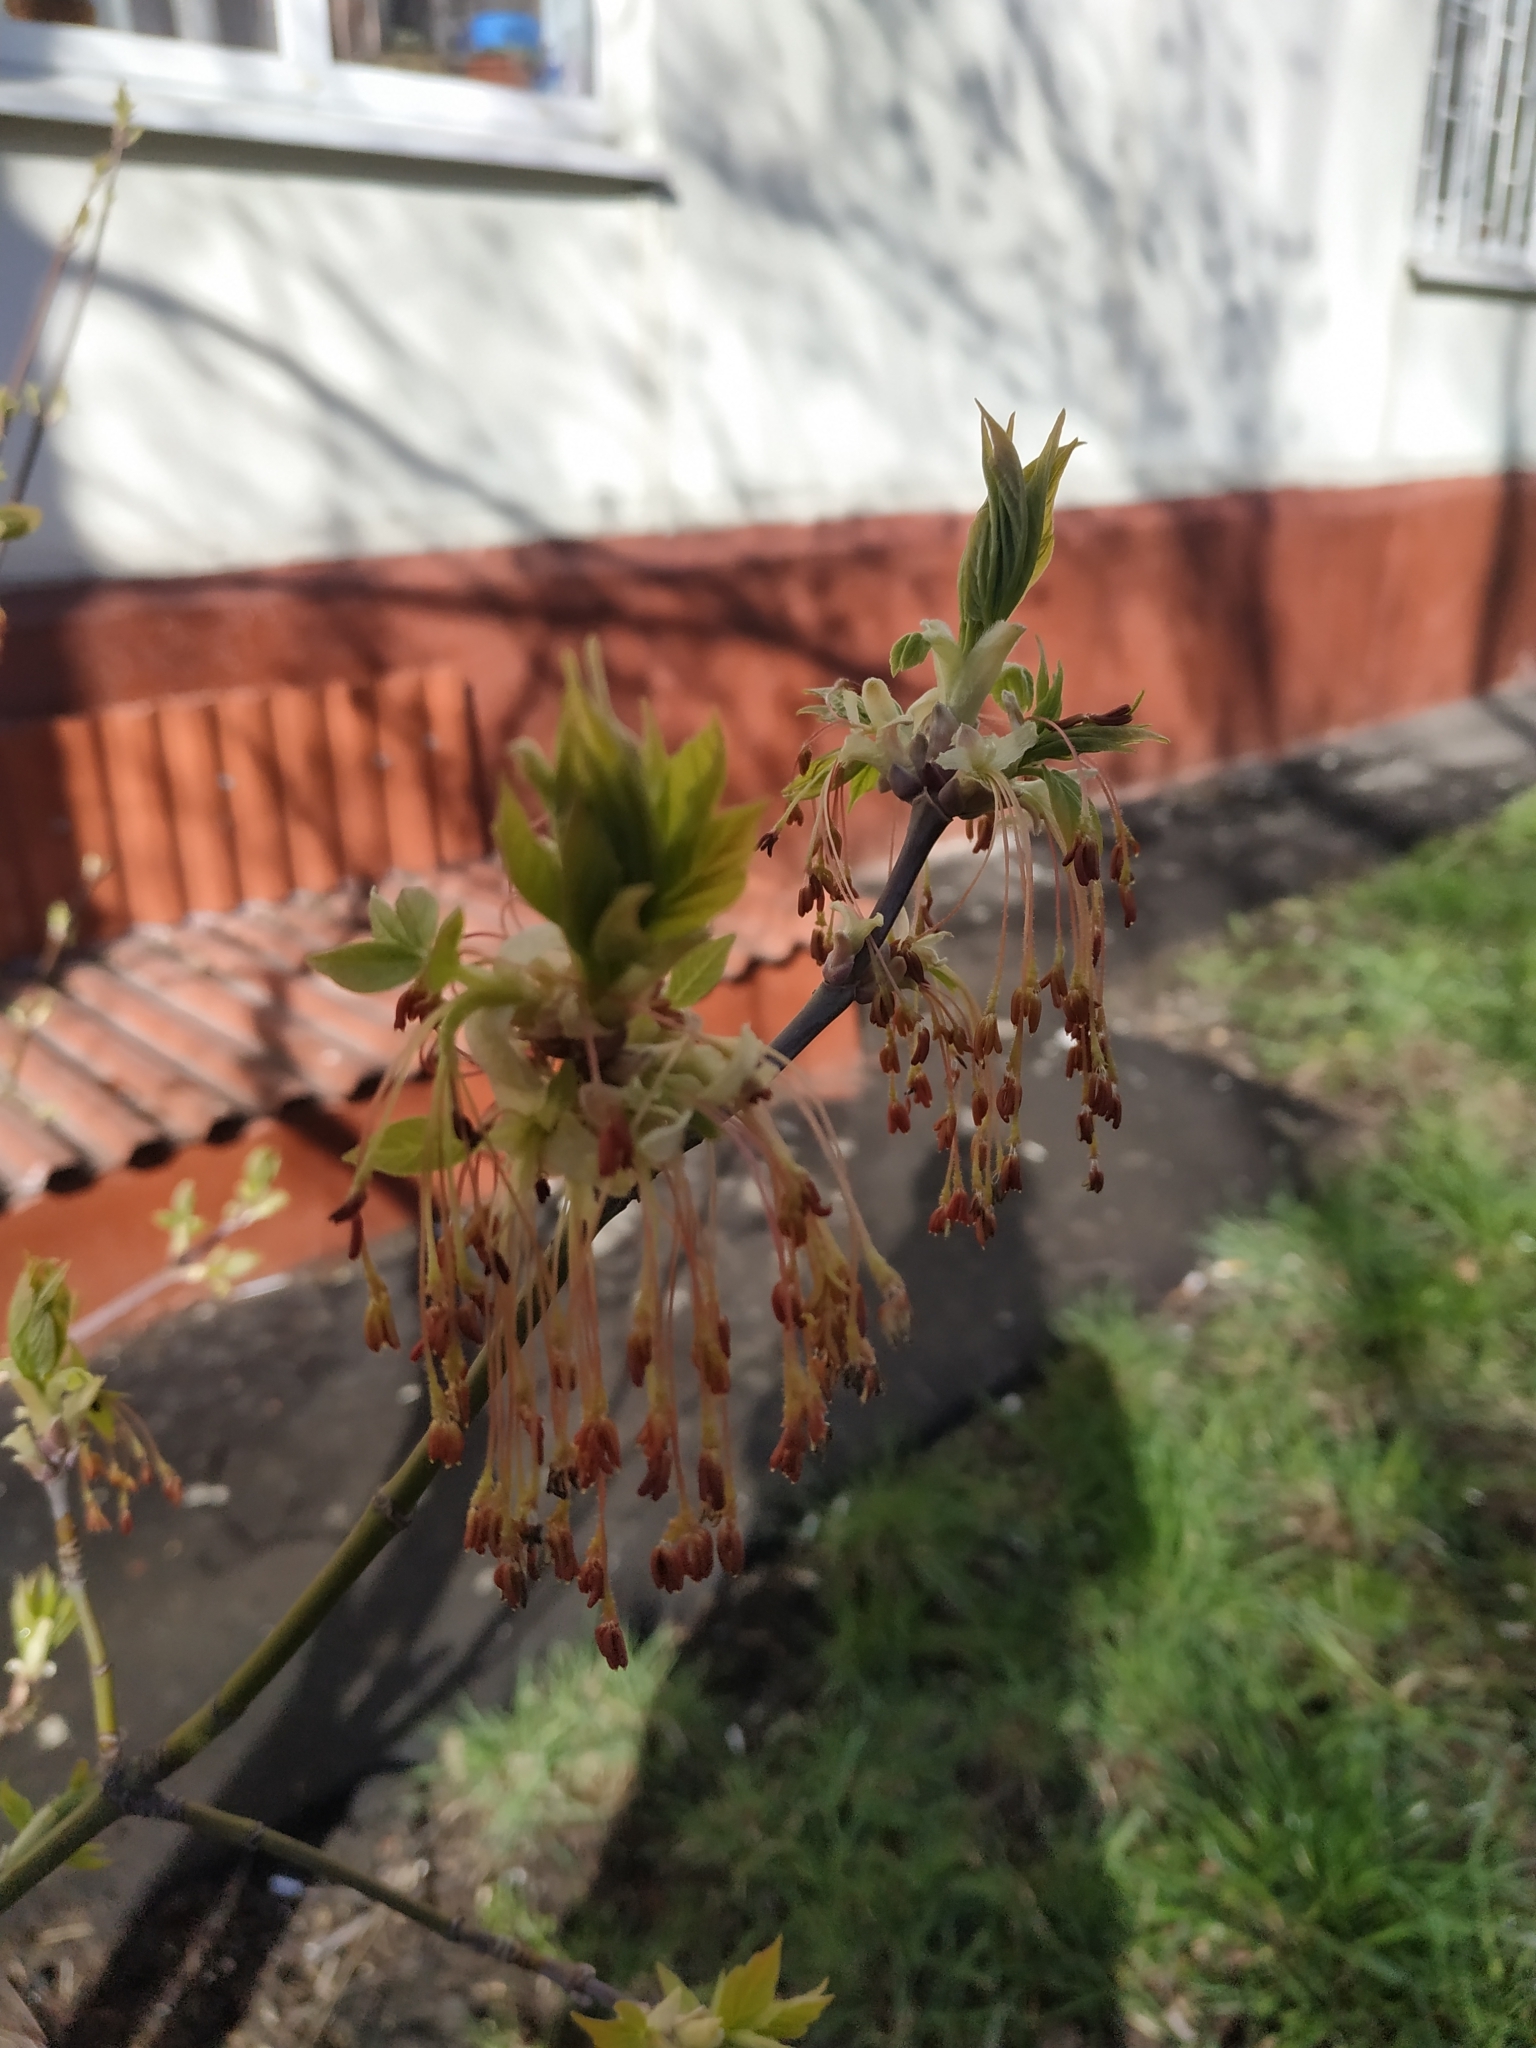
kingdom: Plantae
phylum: Tracheophyta
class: Magnoliopsida
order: Sapindales
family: Sapindaceae
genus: Acer
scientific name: Acer negundo
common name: Ashleaf maple
